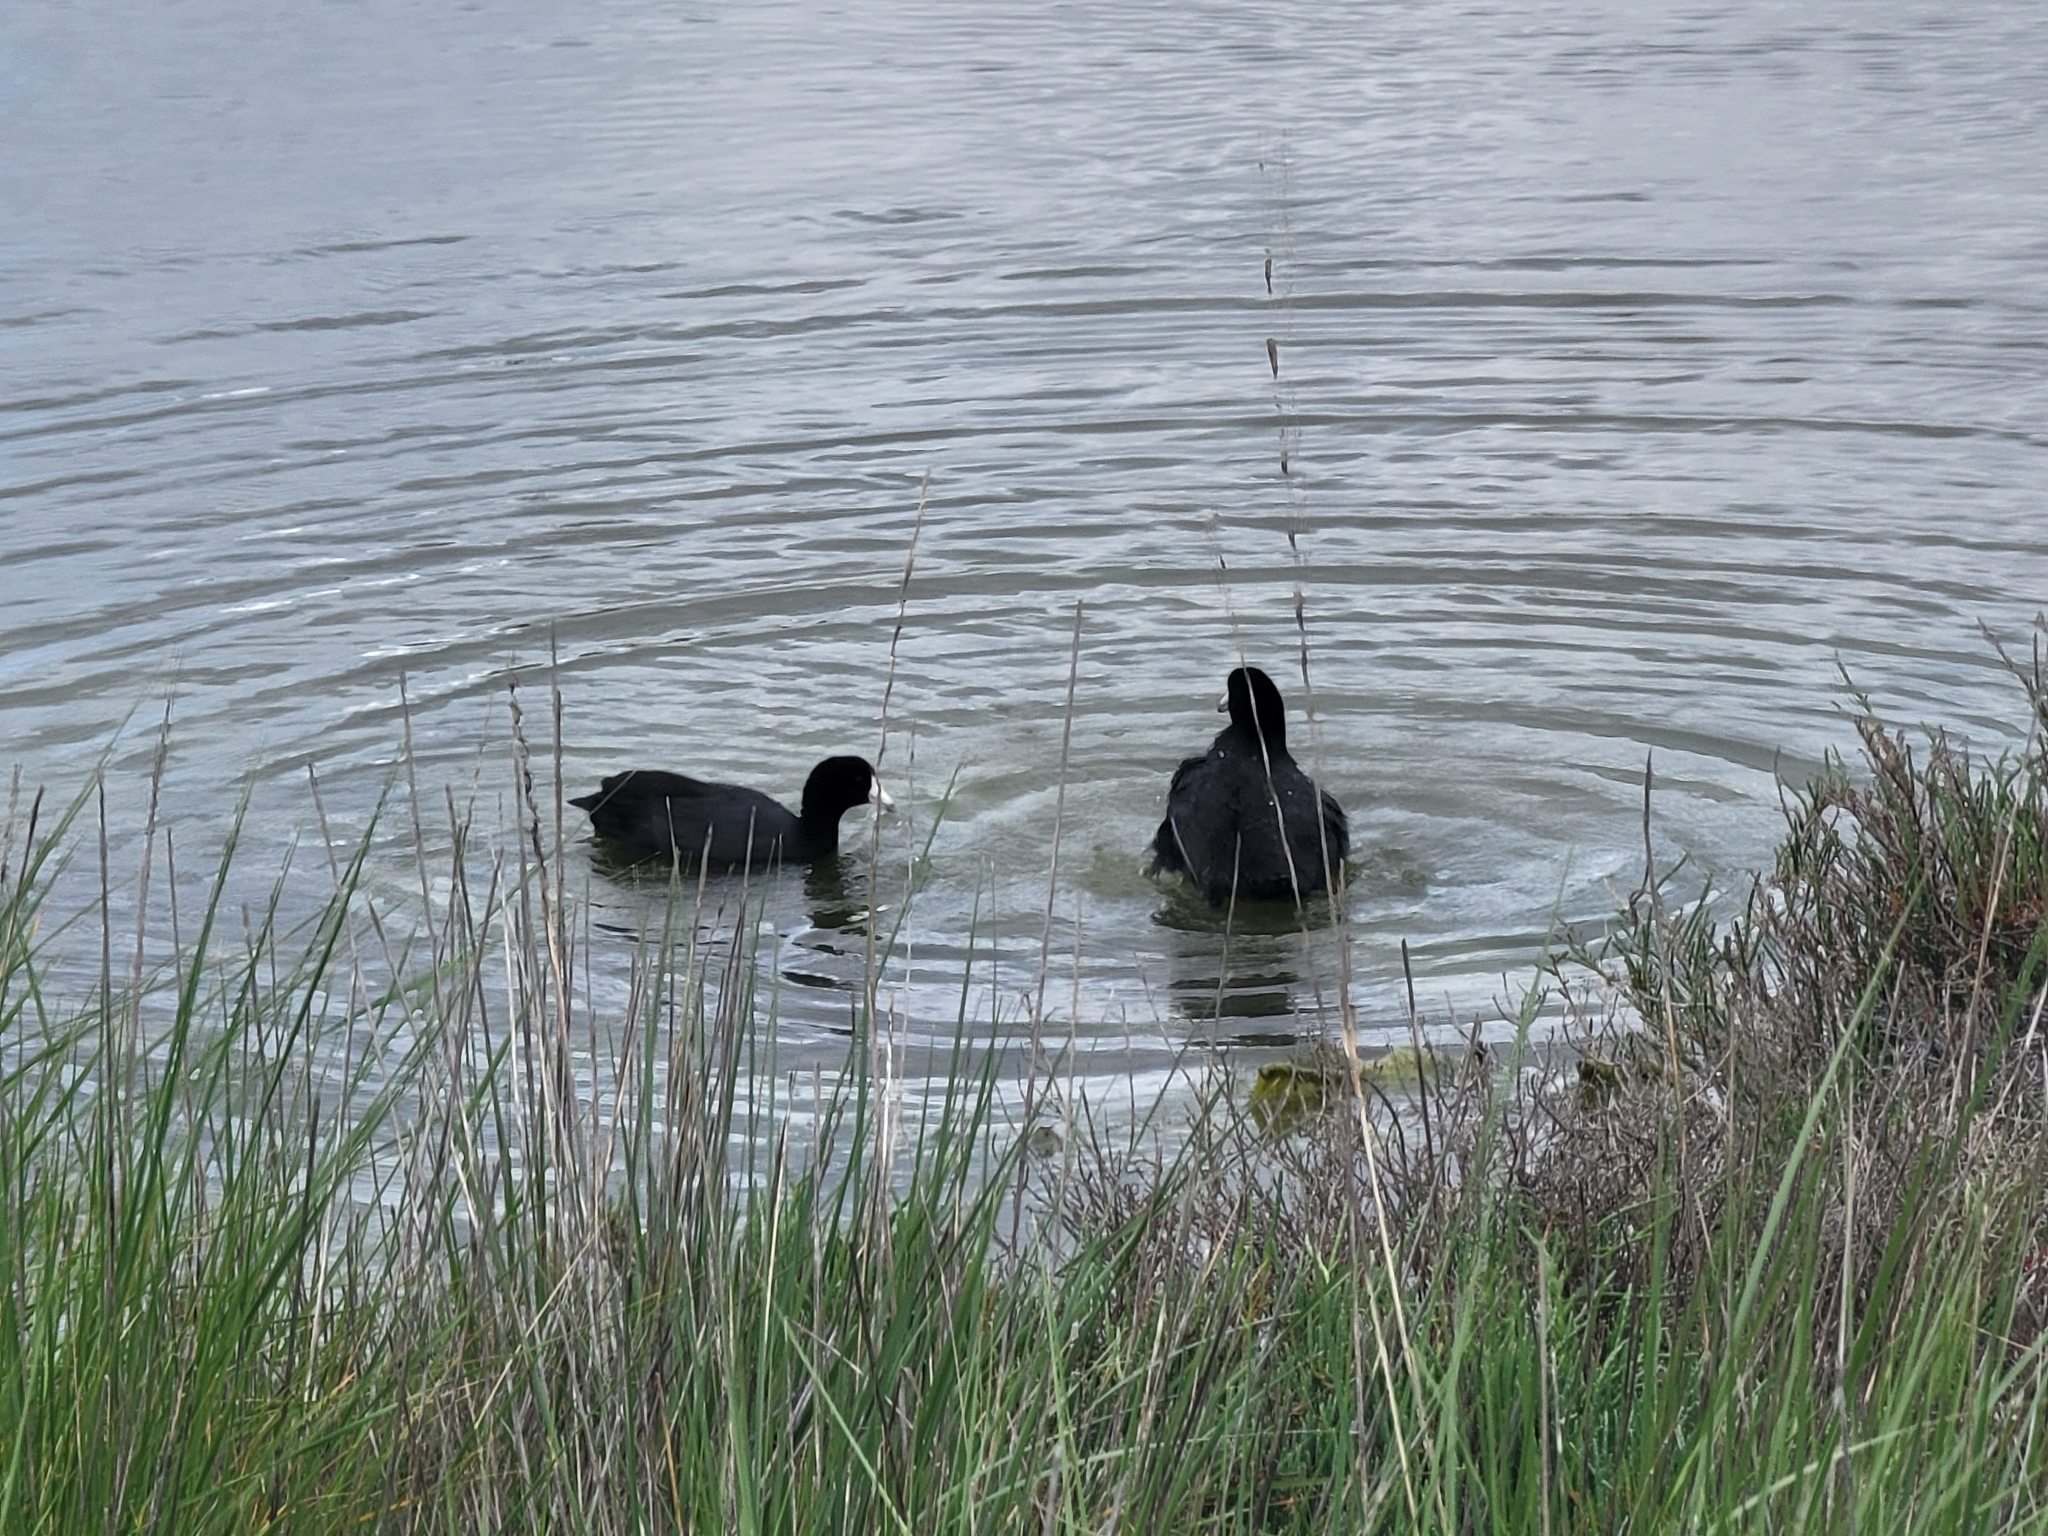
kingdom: Animalia
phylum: Chordata
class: Aves
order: Gruiformes
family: Rallidae
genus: Fulica
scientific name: Fulica americana
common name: American coot
